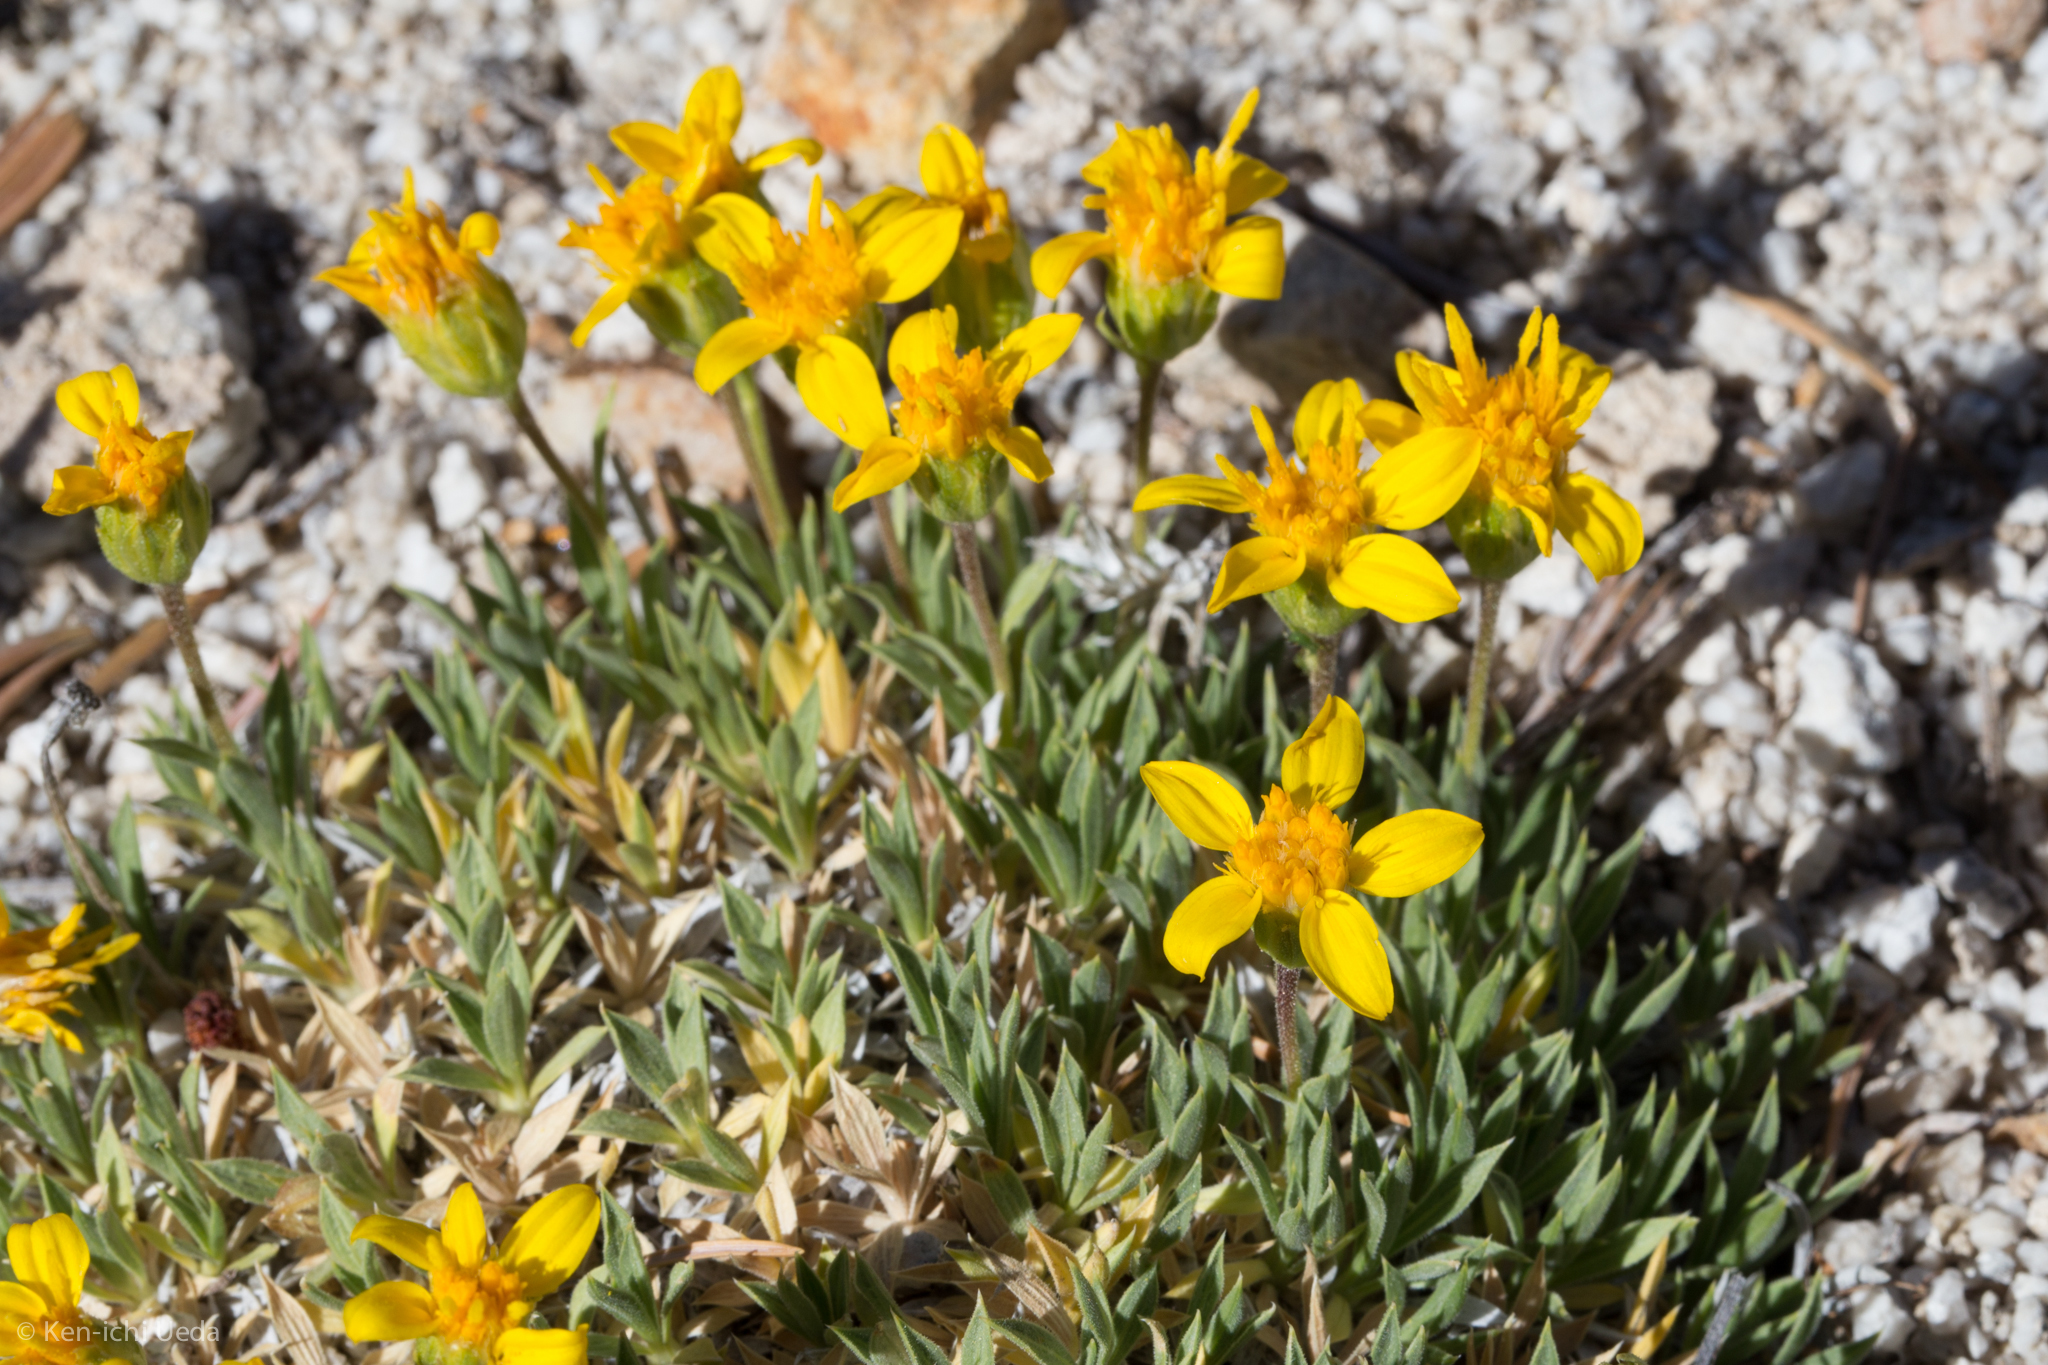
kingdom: Plantae
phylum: Tracheophyta
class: Magnoliopsida
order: Asterales
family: Asteraceae
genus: Stenotus
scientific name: Stenotus acaulis
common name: Stemless goldenweed
